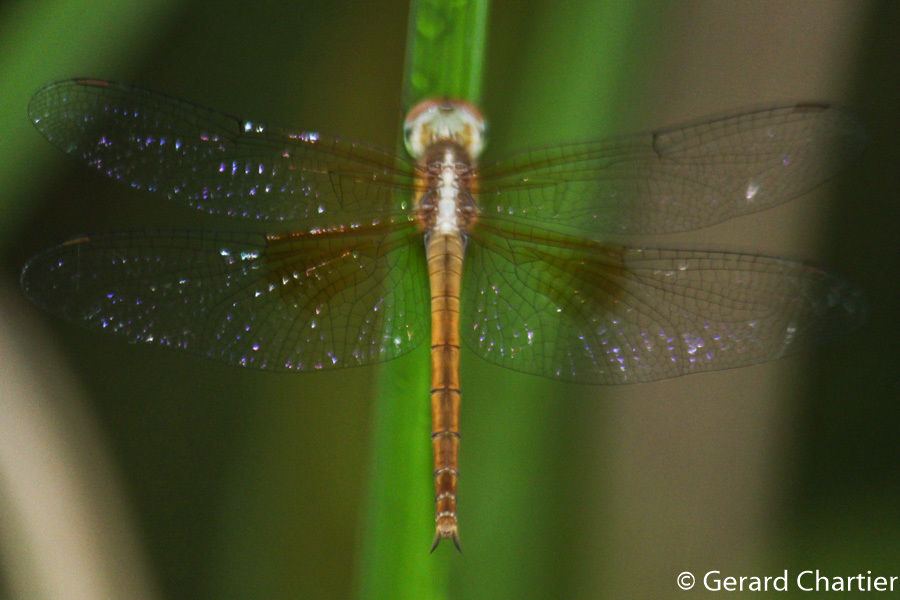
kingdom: Animalia
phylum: Arthropoda
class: Insecta
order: Odonata
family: Libellulidae
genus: Tholymis
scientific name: Tholymis tillarga
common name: Coral-tailed cloud wing
